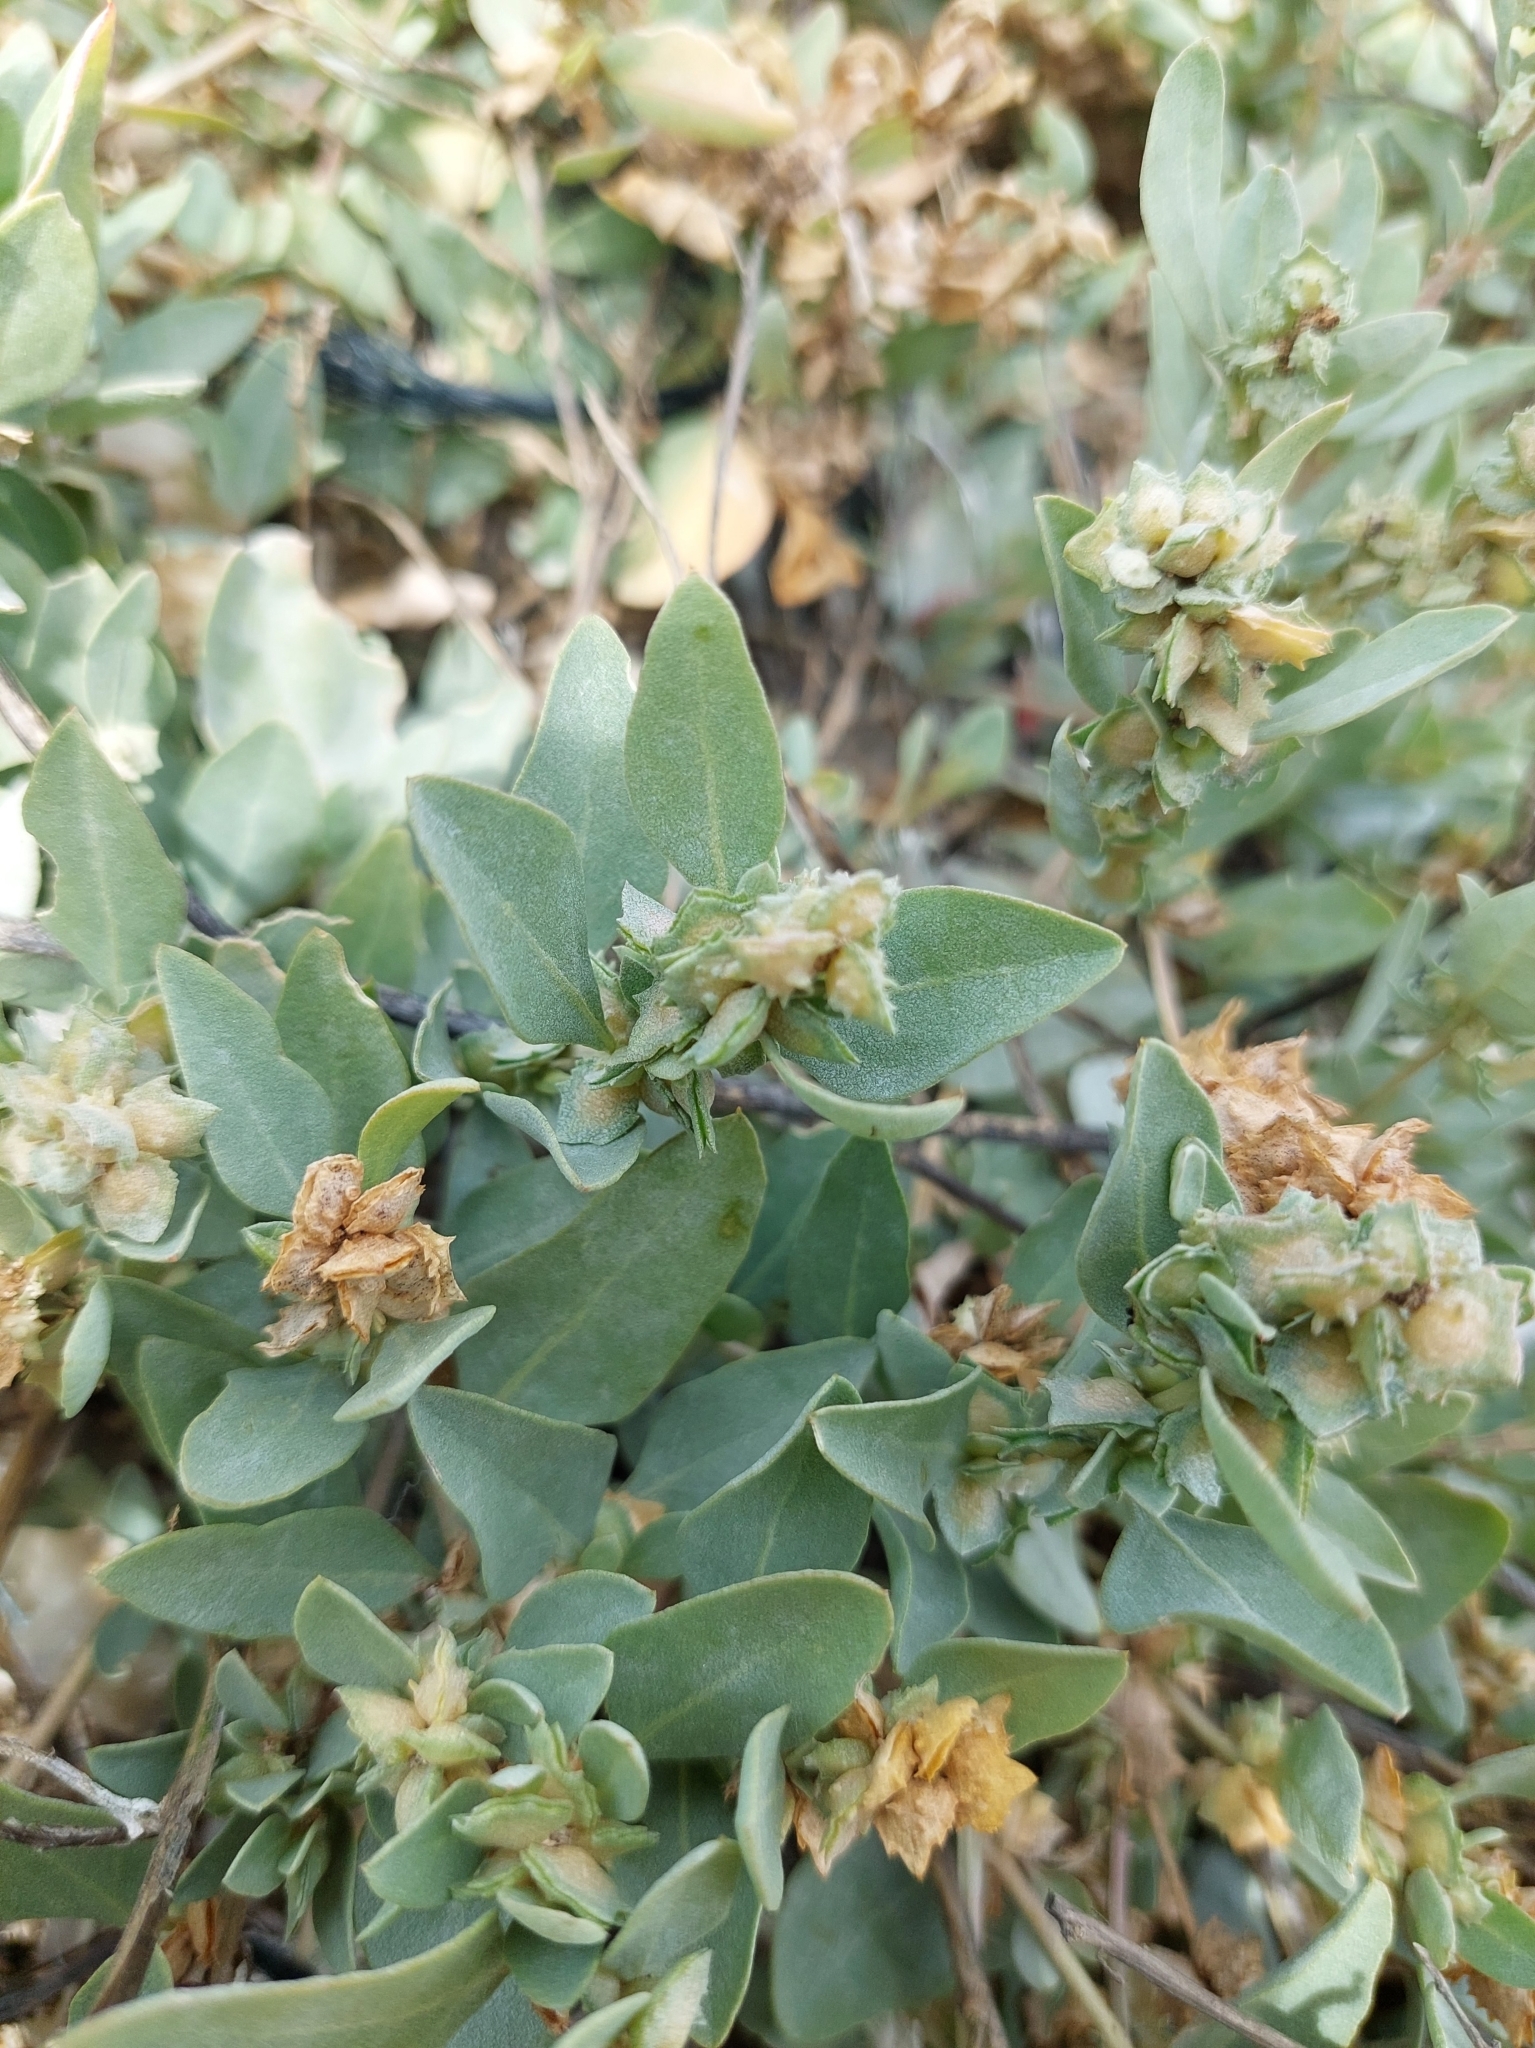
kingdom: Plantae
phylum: Tracheophyta
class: Magnoliopsida
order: Caryophyllales
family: Amaranthaceae
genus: Atriplex
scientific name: Atriplex maximowicziana
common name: Maximowicz's saltbush
